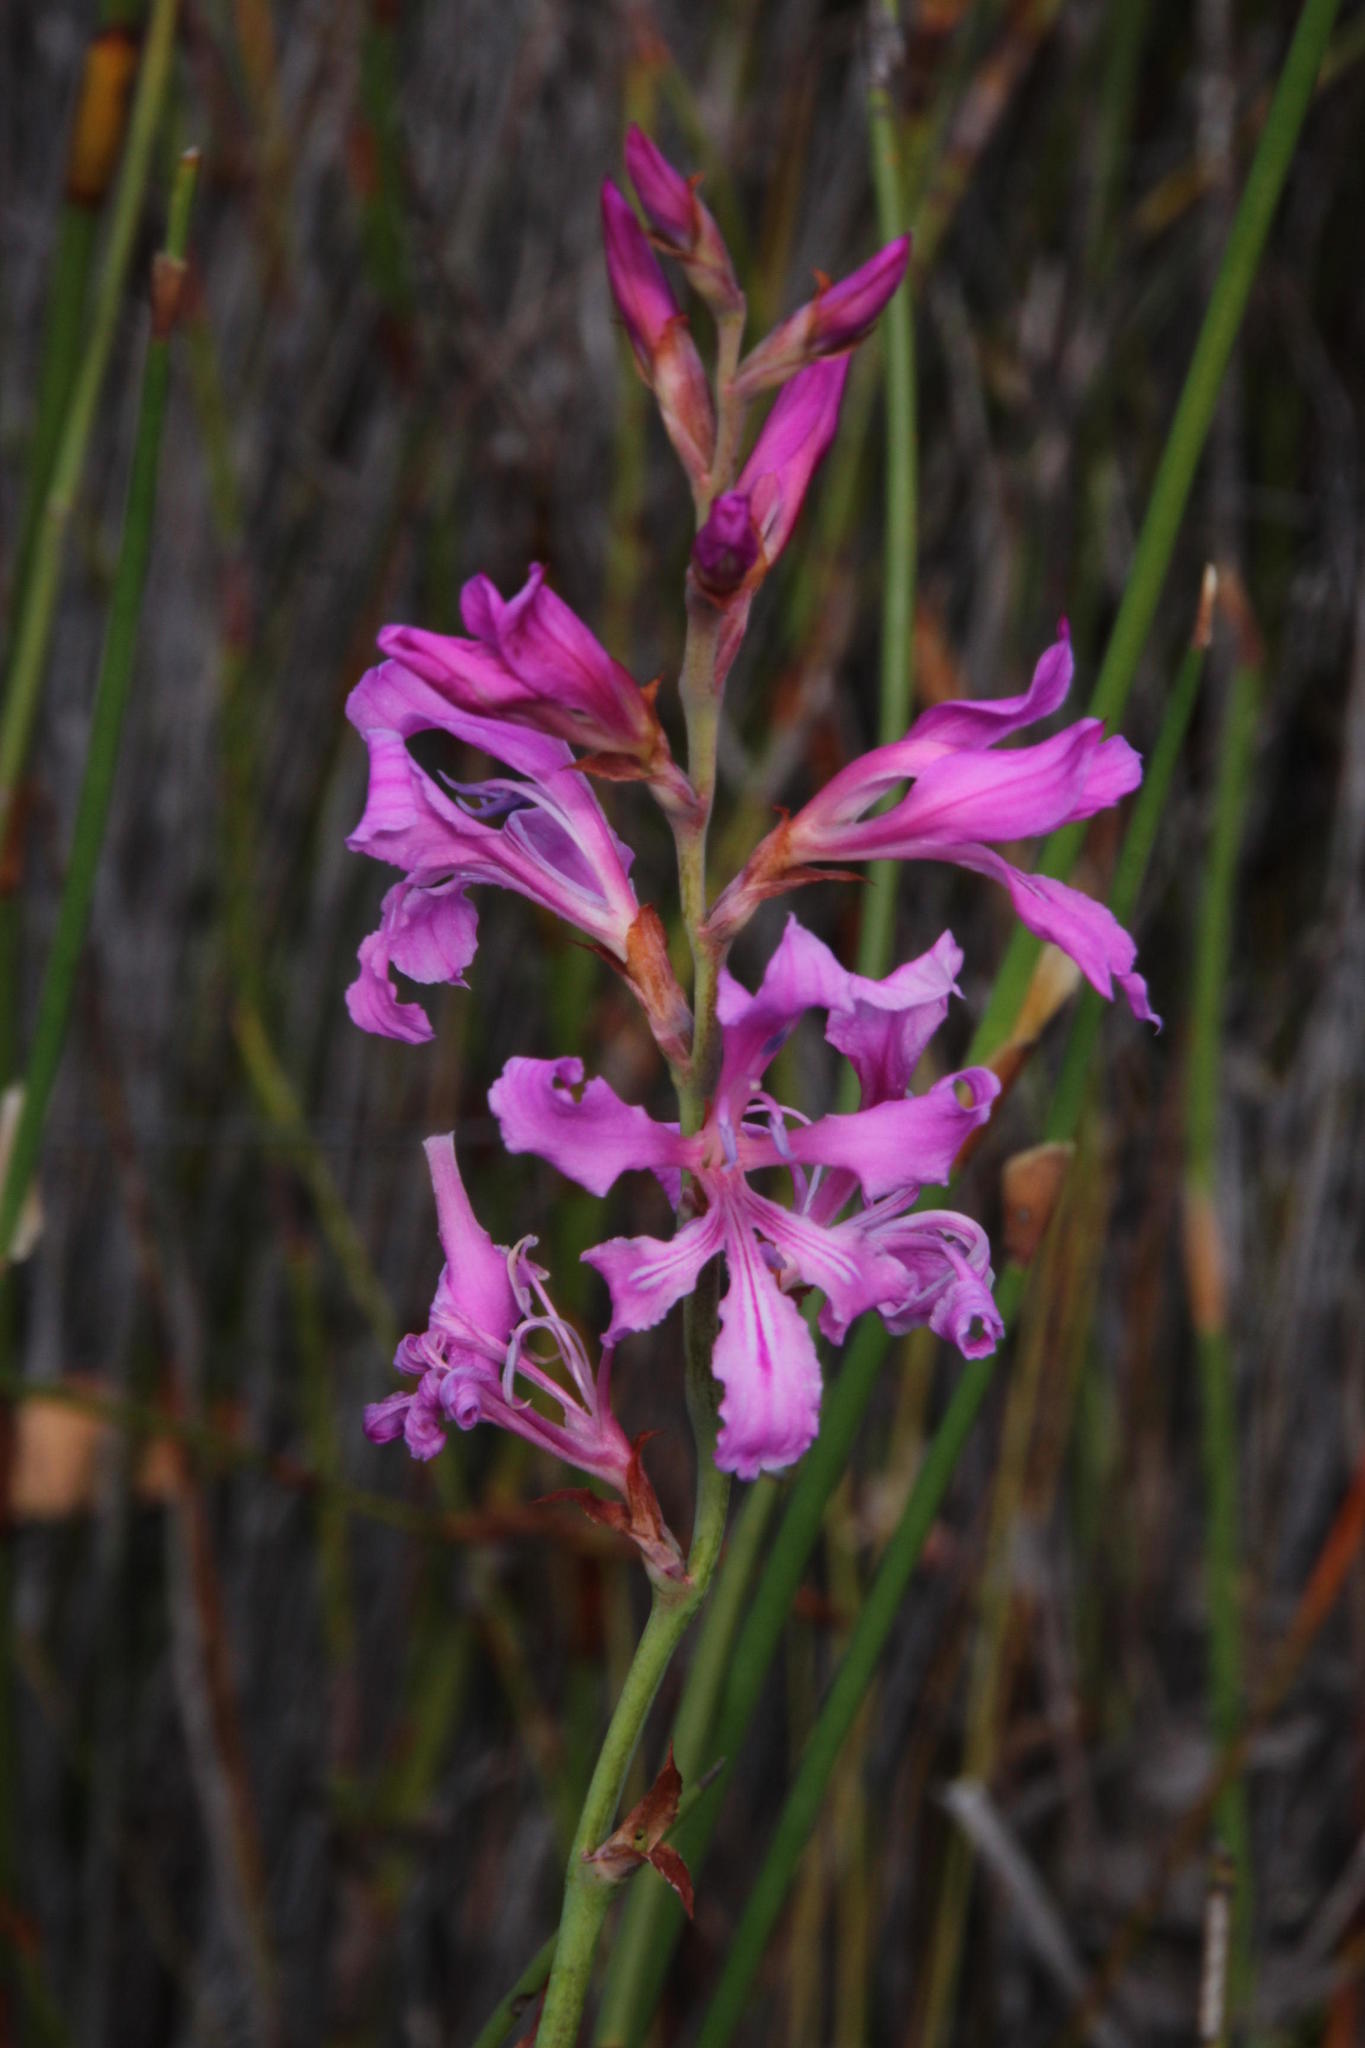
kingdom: Plantae
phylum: Tracheophyta
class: Liliopsida
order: Asparagales
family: Iridaceae
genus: Tritoniopsis
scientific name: Tritoniopsis lata
